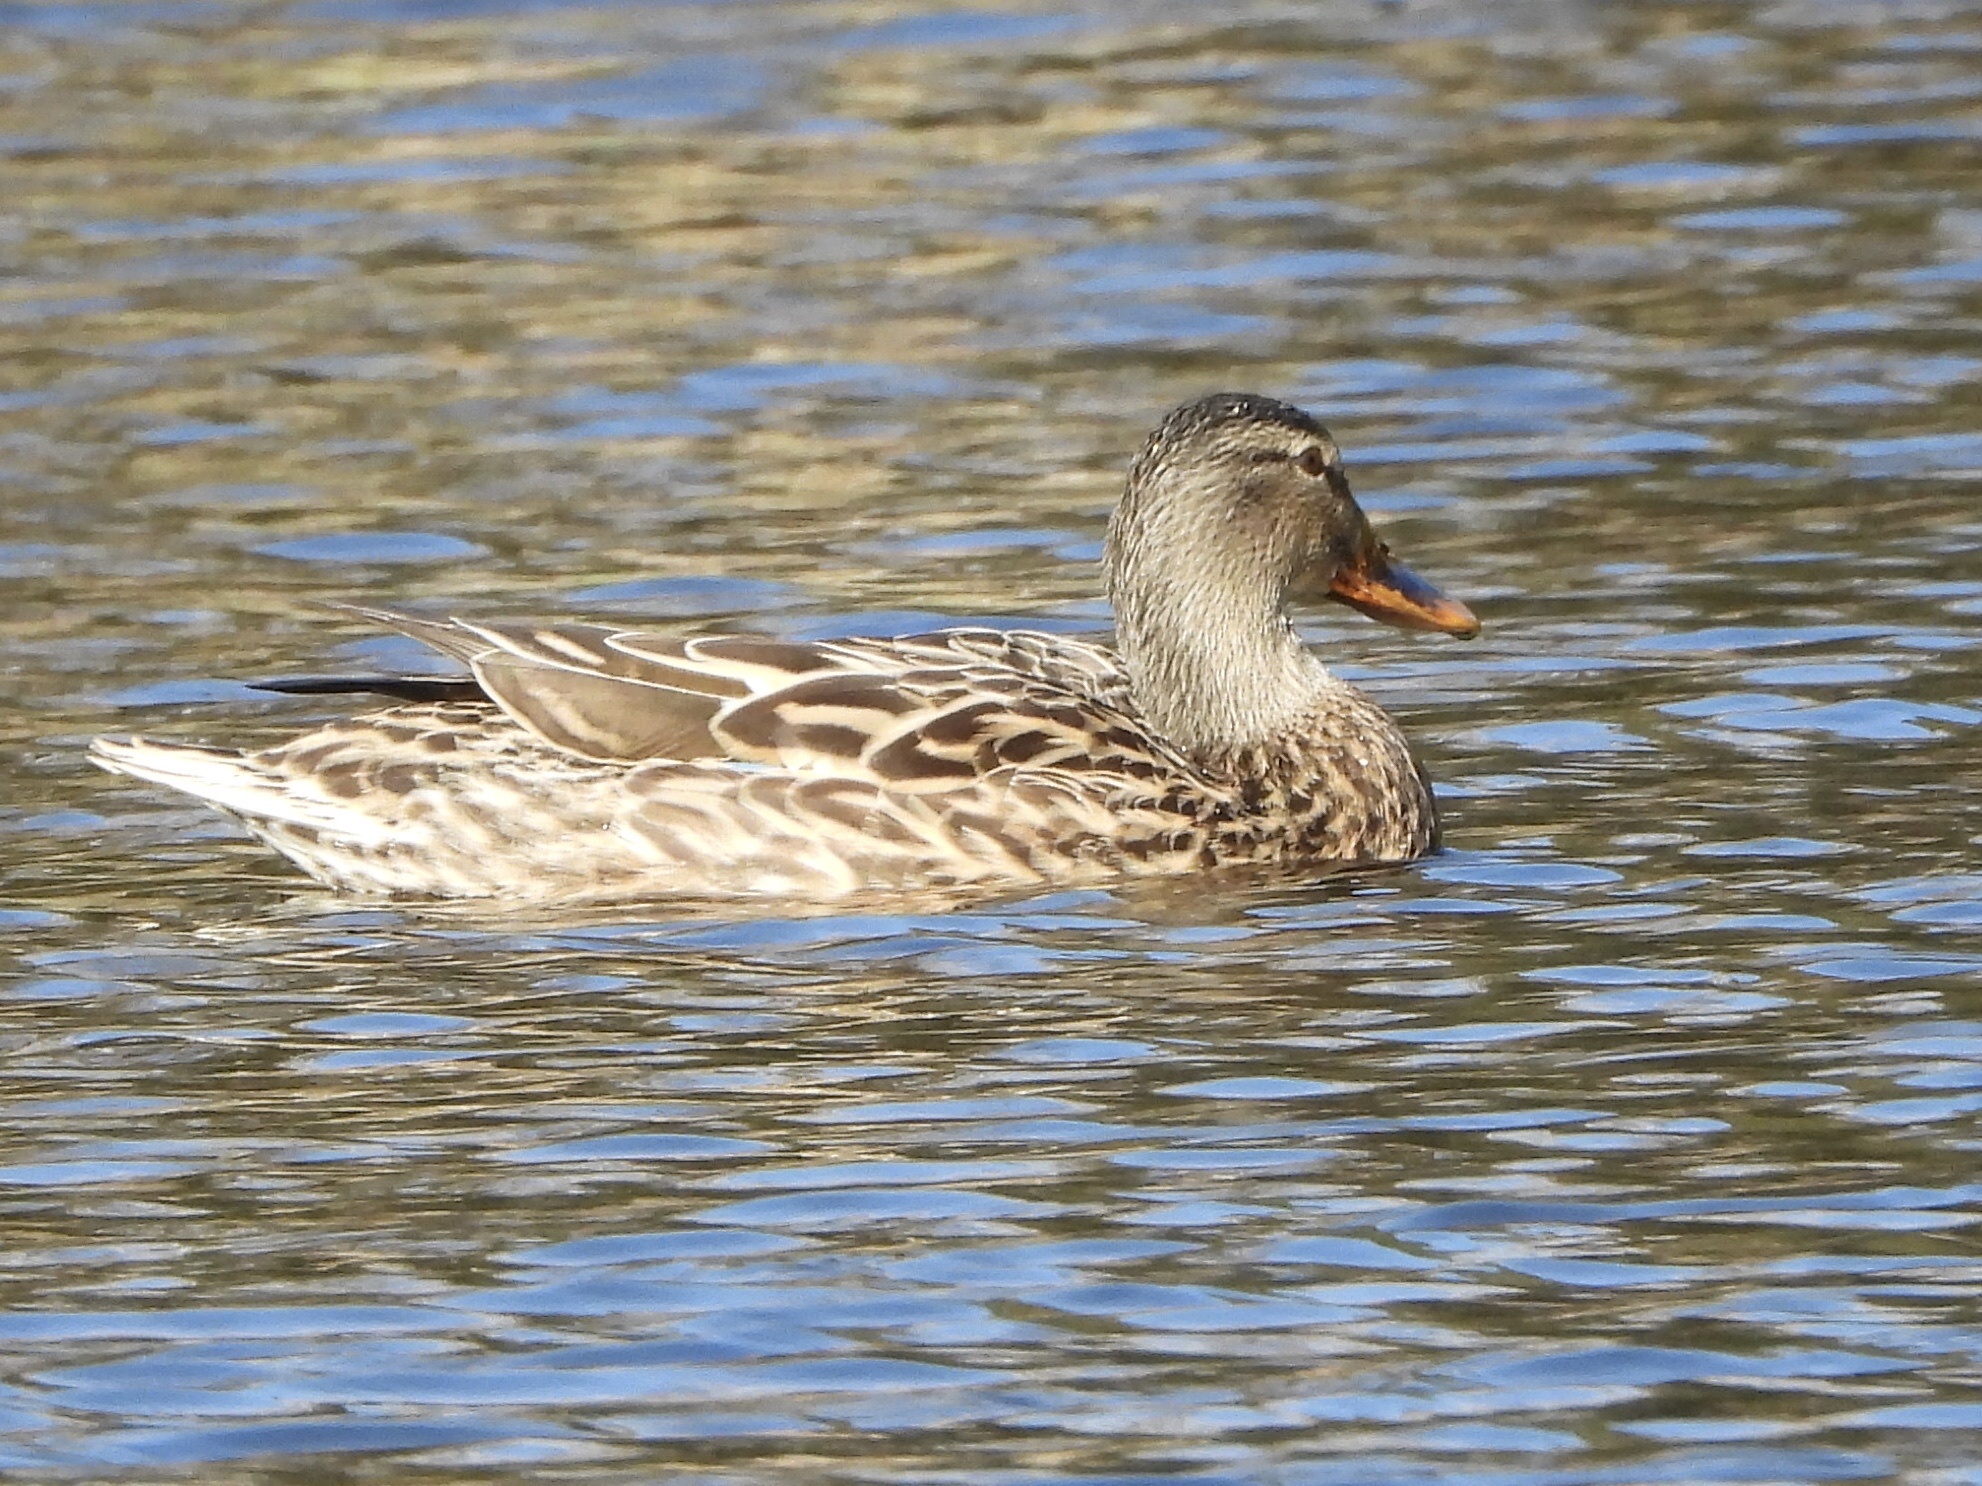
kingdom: Animalia
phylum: Chordata
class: Aves
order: Anseriformes
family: Anatidae
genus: Anas
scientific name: Anas platyrhynchos
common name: Mallard
